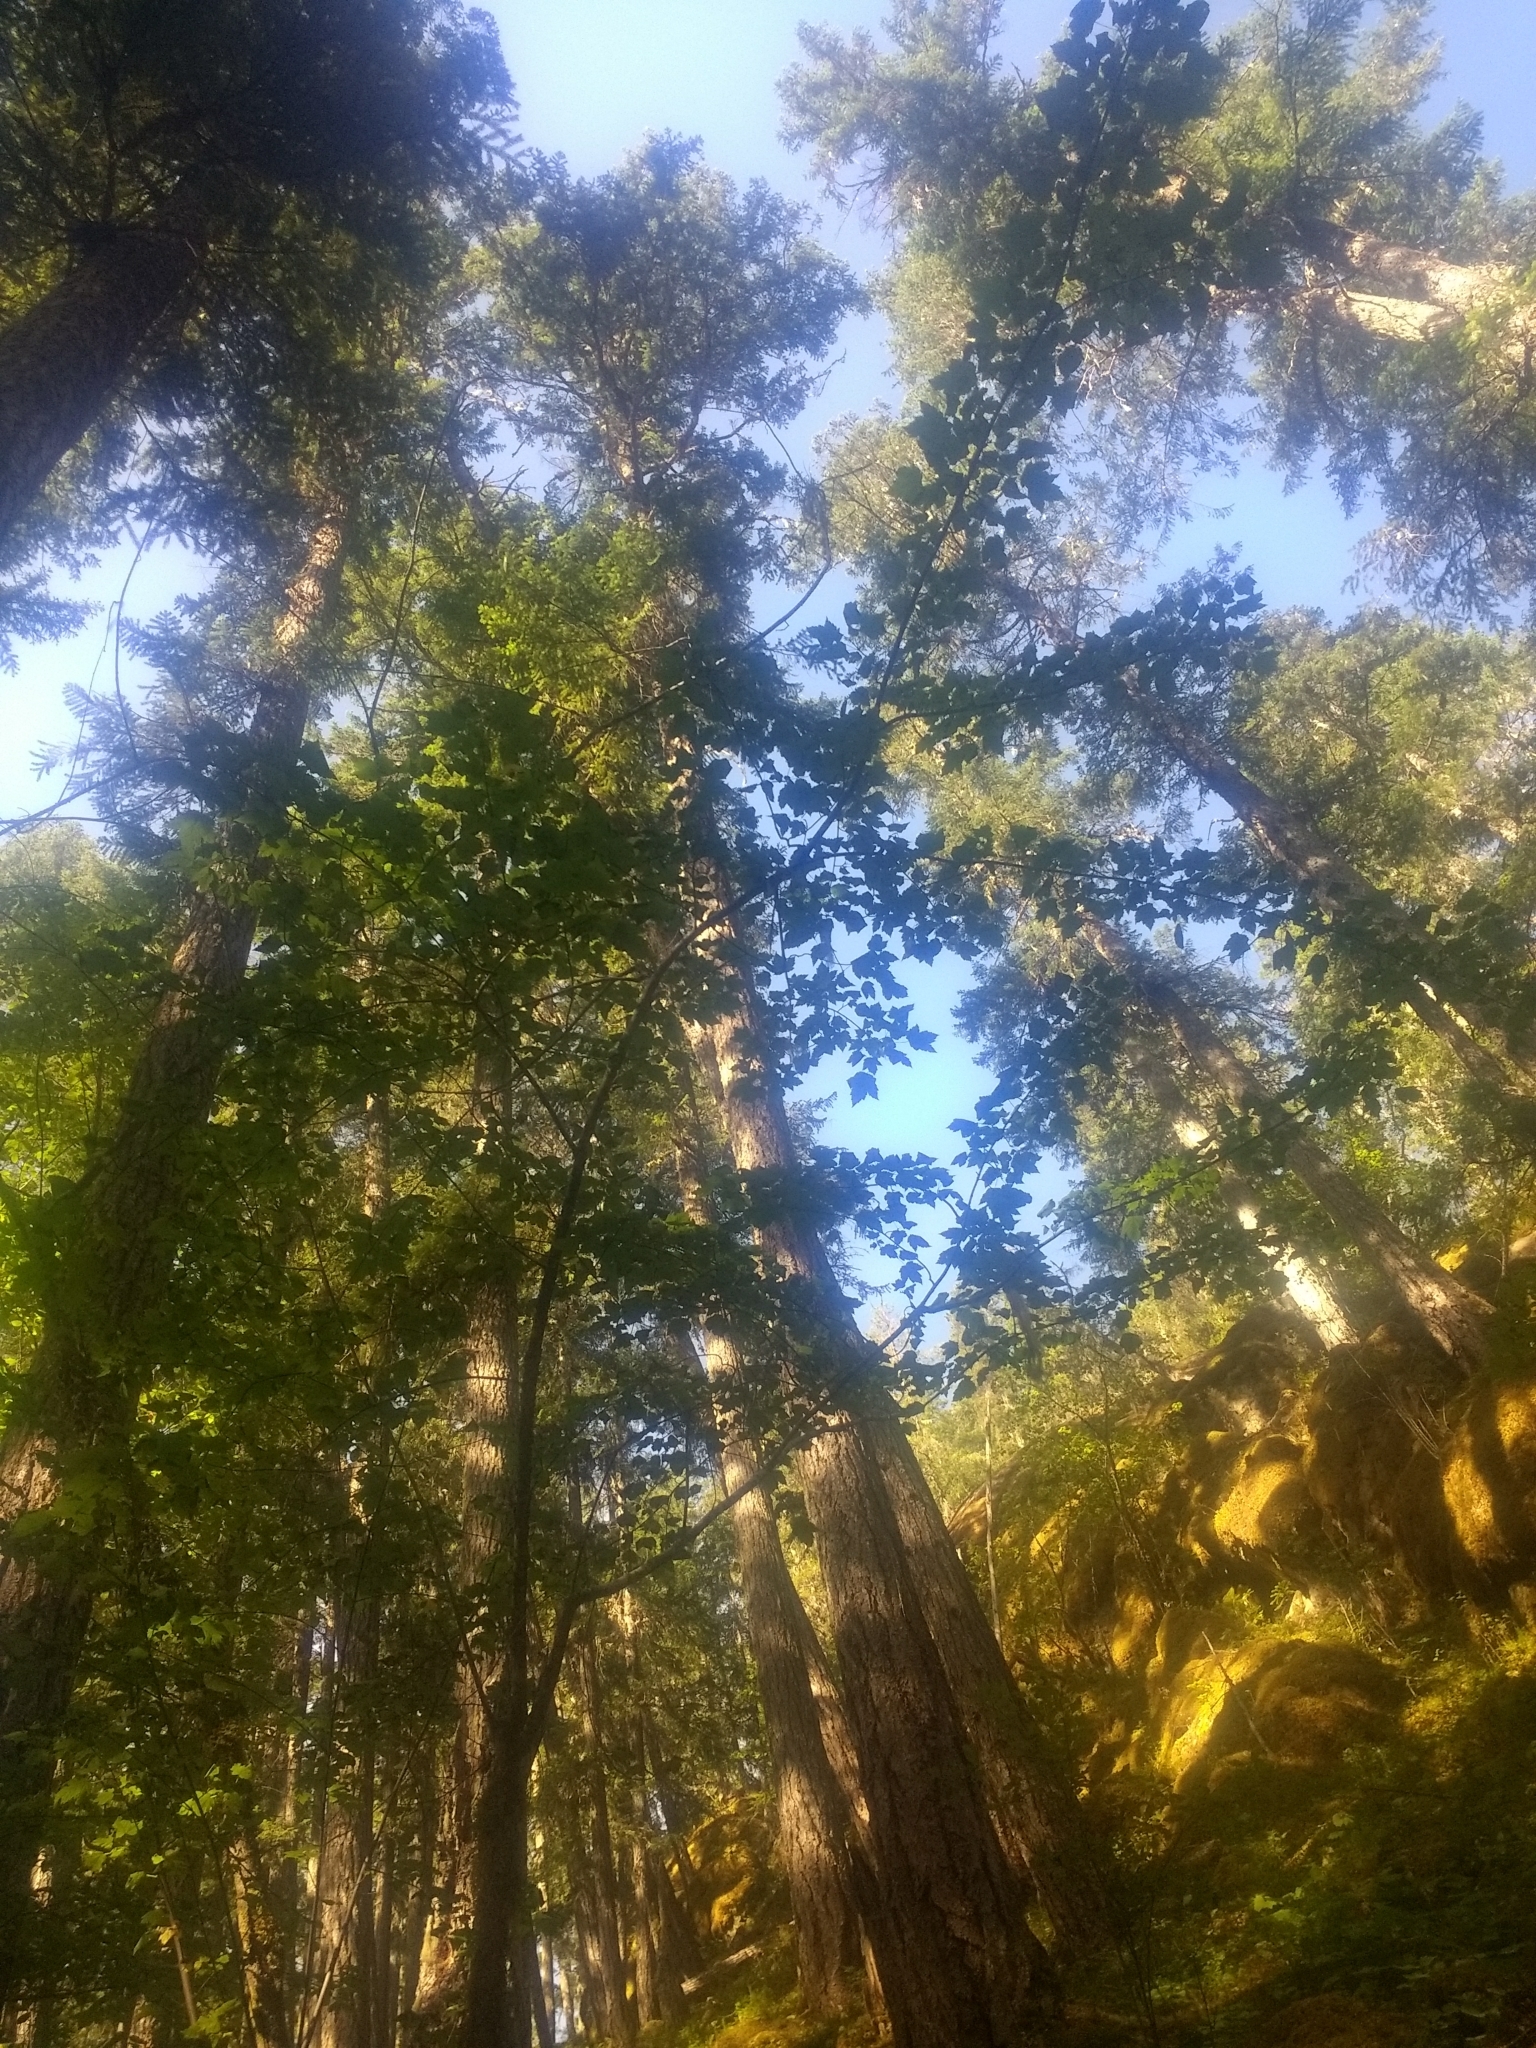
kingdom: Plantae
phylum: Tracheophyta
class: Magnoliopsida
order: Sapindales
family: Sapindaceae
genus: Acer
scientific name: Acer glabrum
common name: Rocky mountain maple
